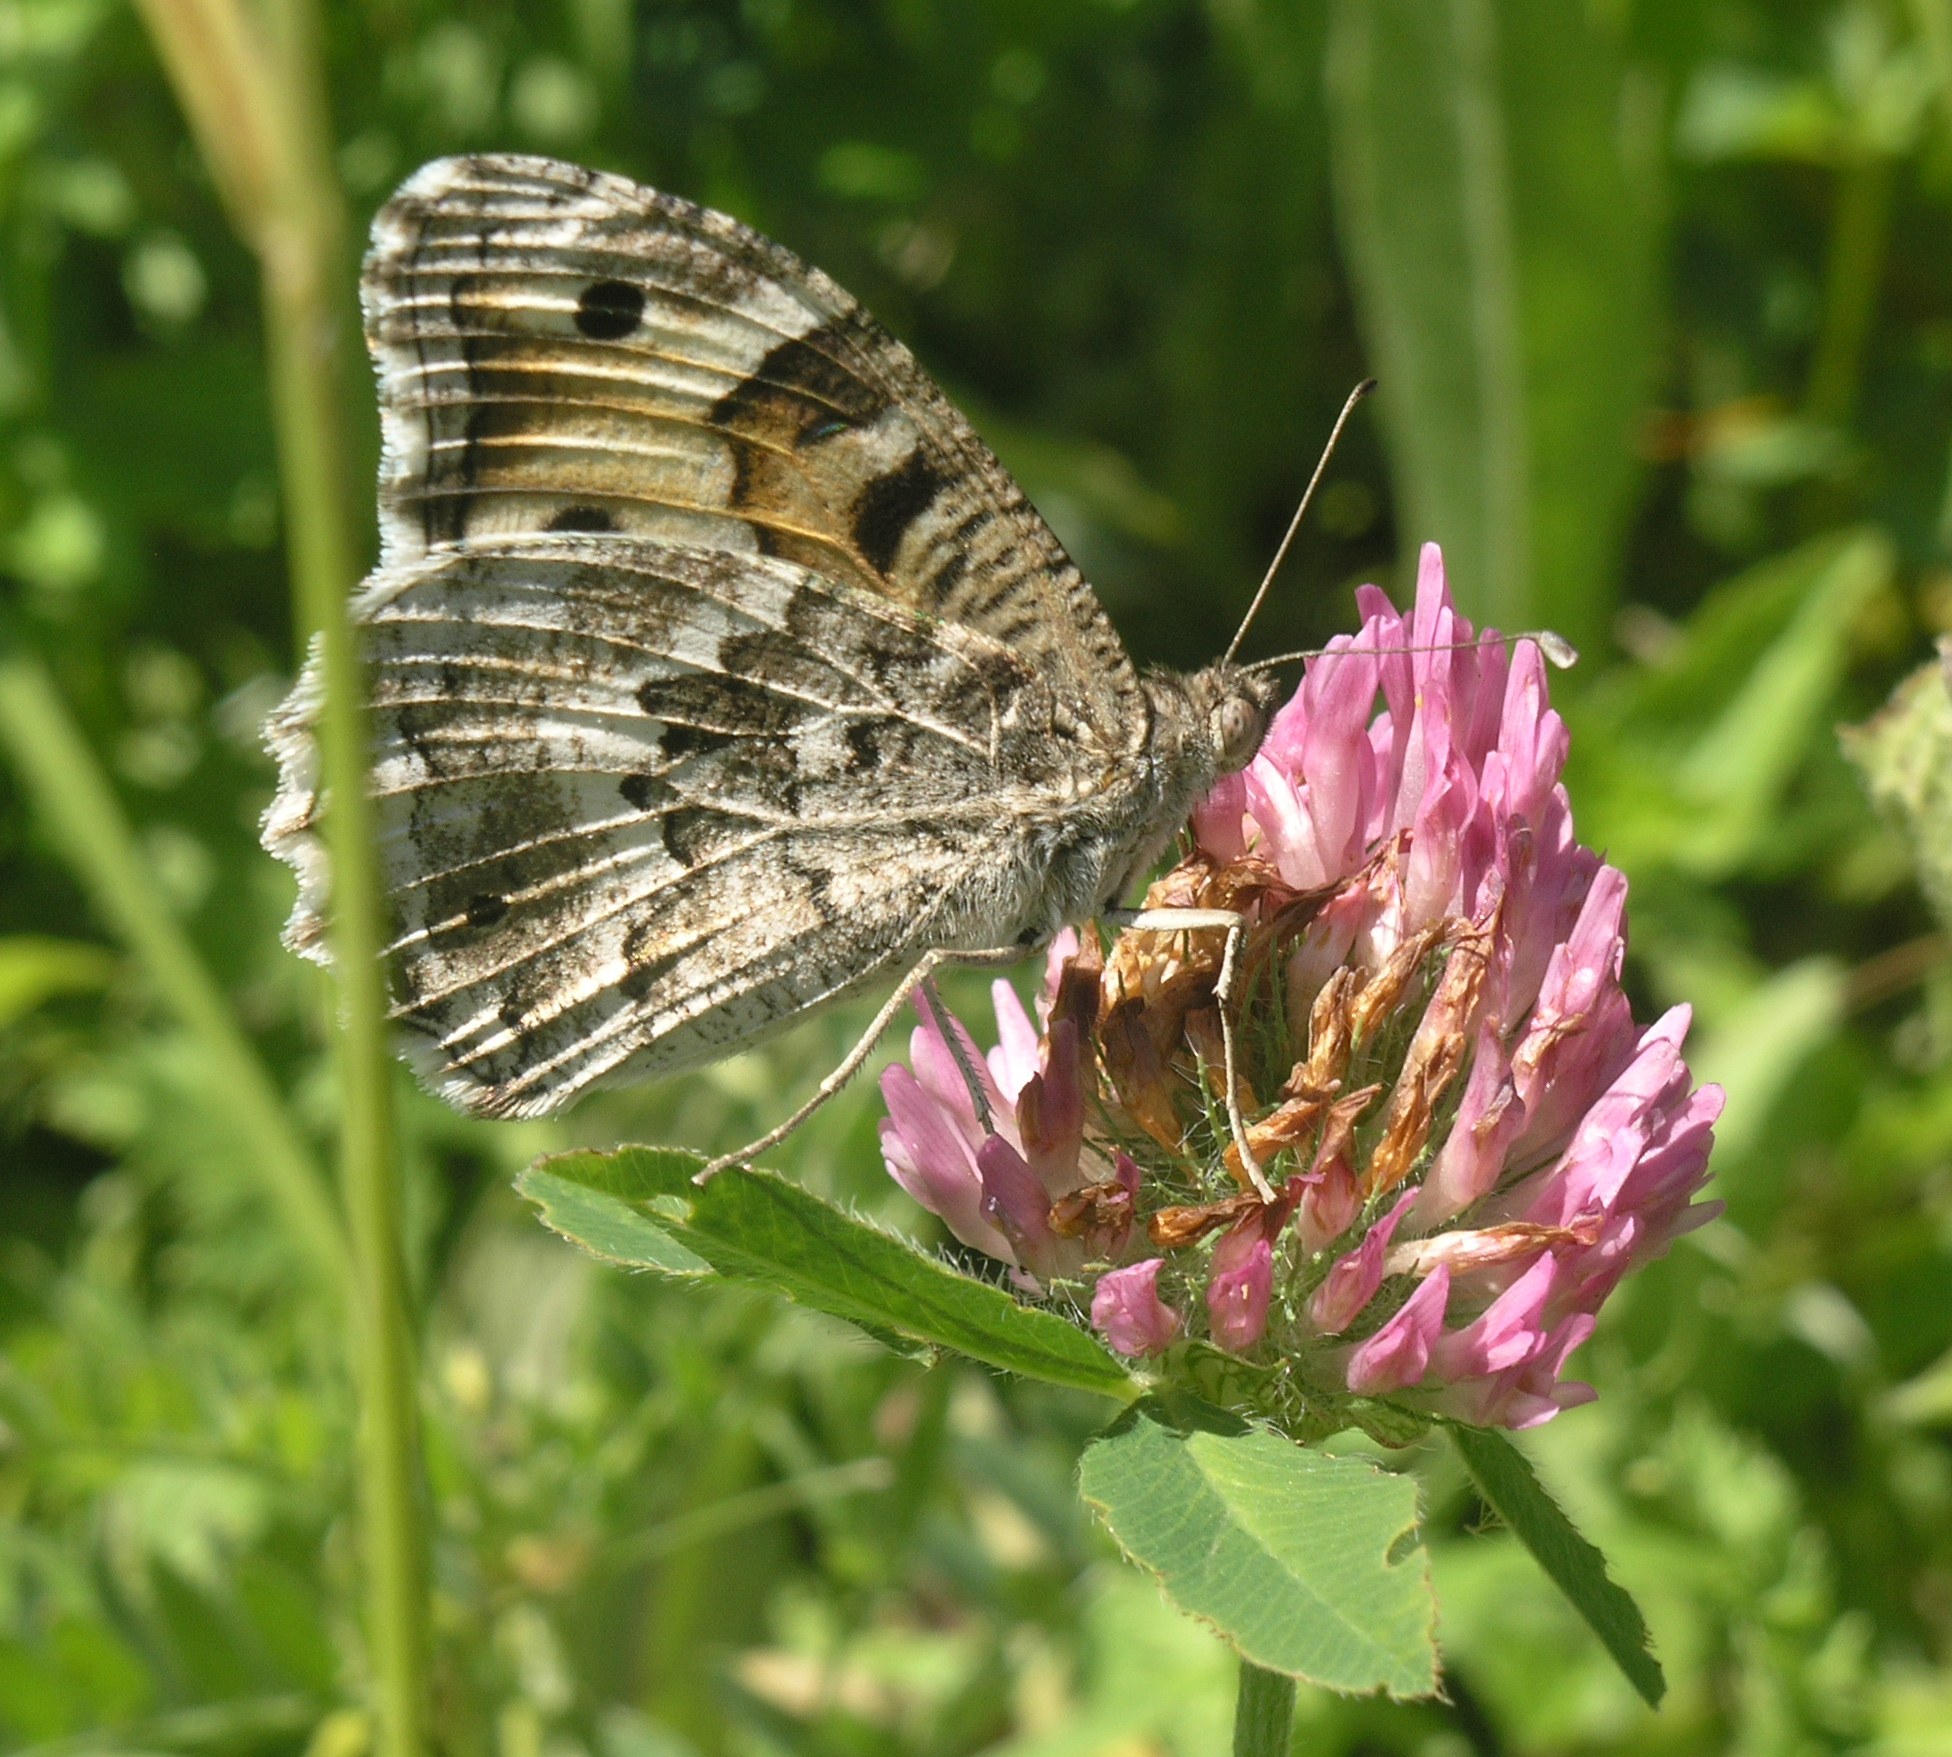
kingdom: Animalia
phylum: Arthropoda
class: Insecta
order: Lepidoptera
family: Nymphalidae
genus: Satyrus
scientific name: Satyrus Chazara enervata
